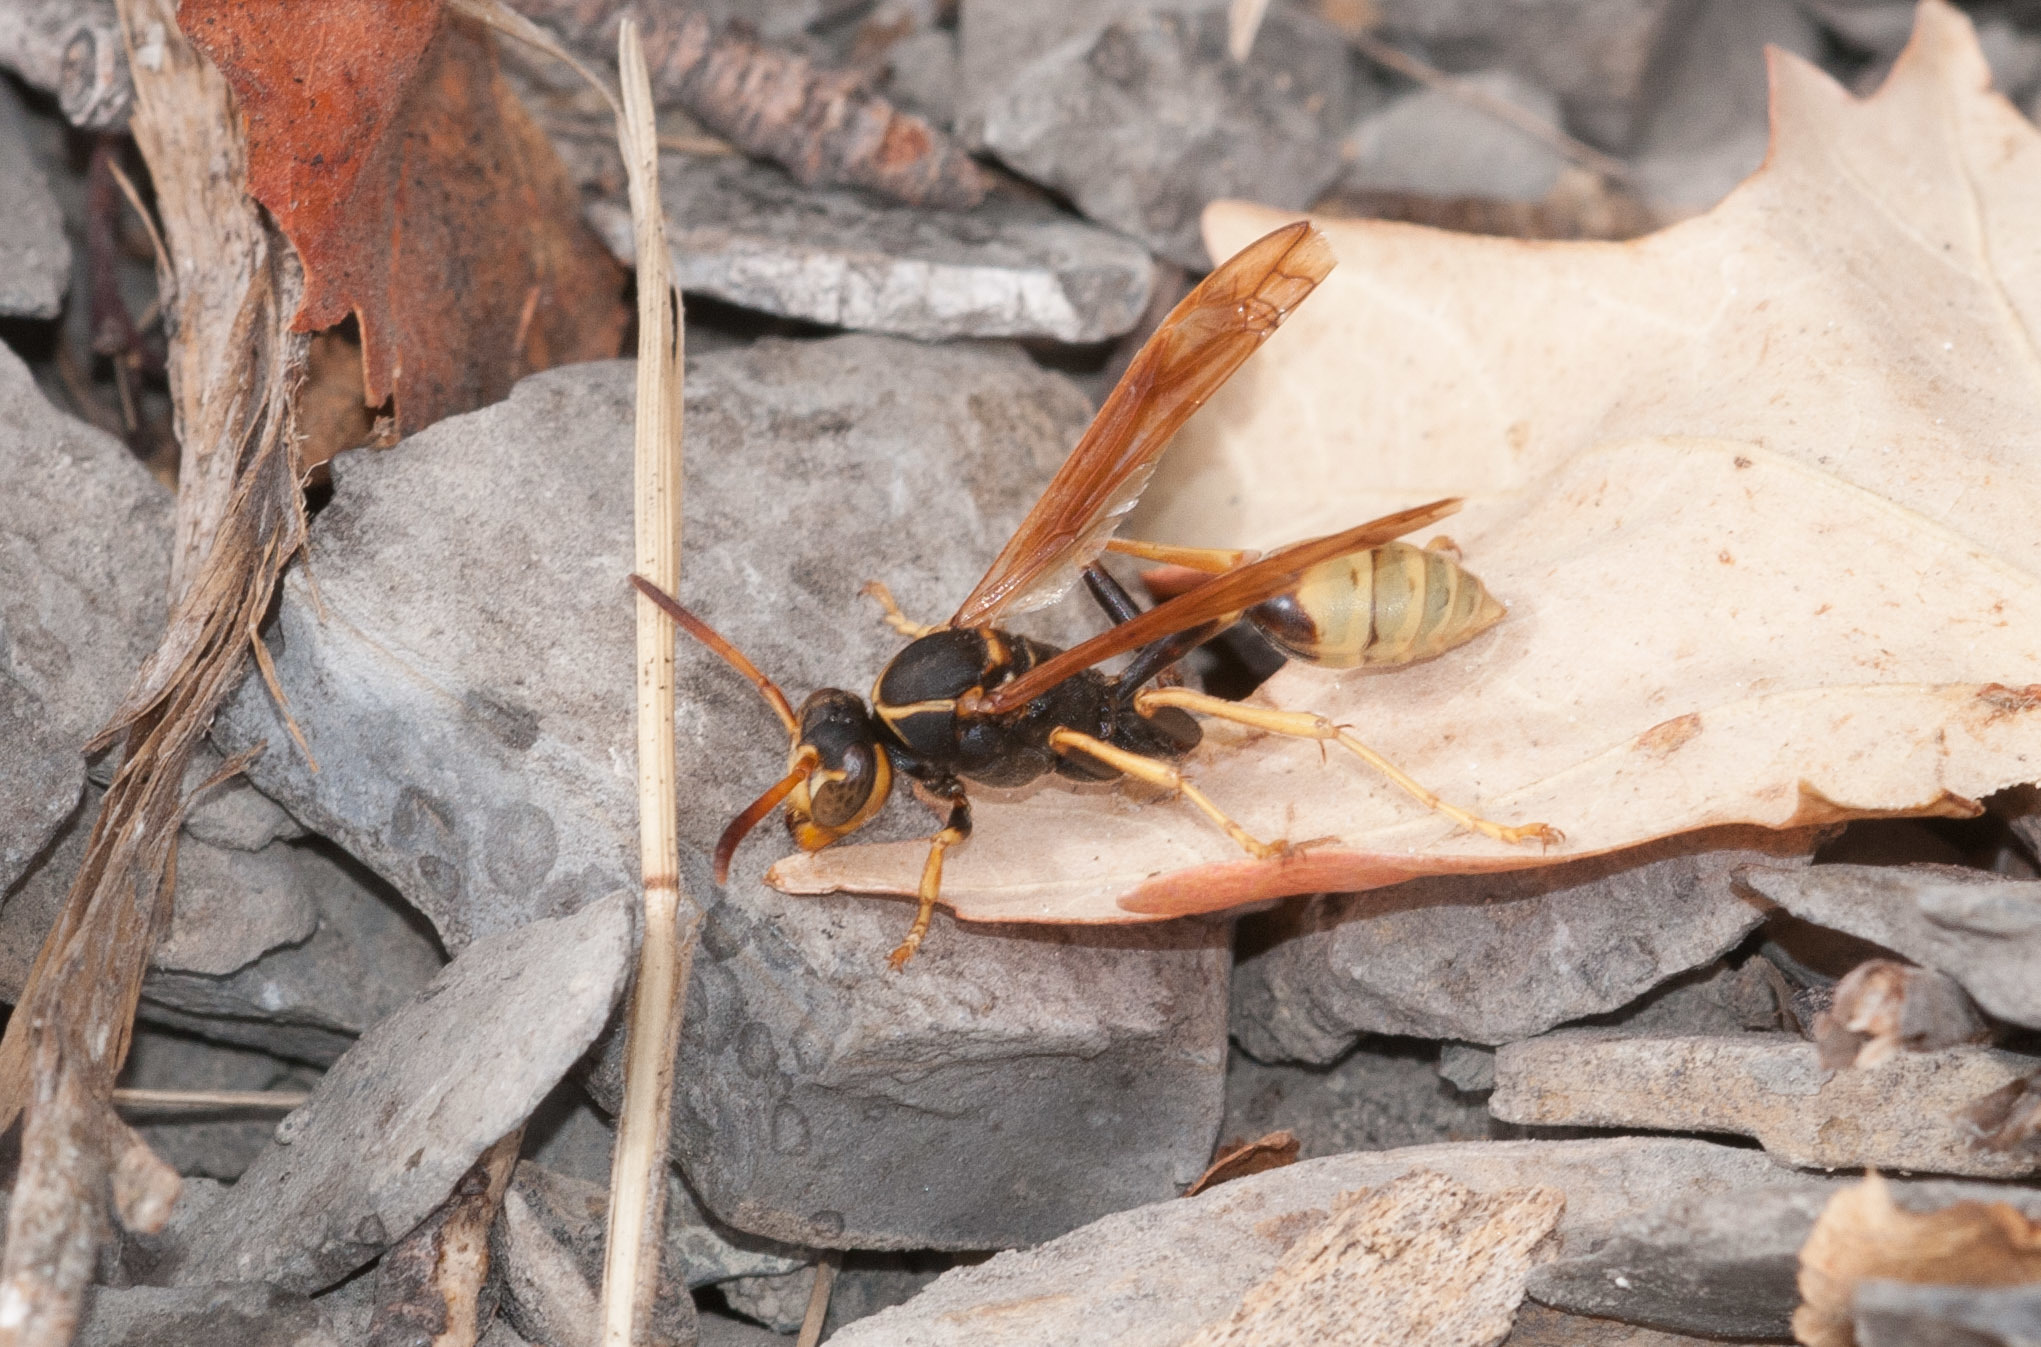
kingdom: Animalia
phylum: Arthropoda
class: Insecta
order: Hymenoptera
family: Vespidae
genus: Mischocyttarus
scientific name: Mischocyttarus flavitarsis
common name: Wasp
